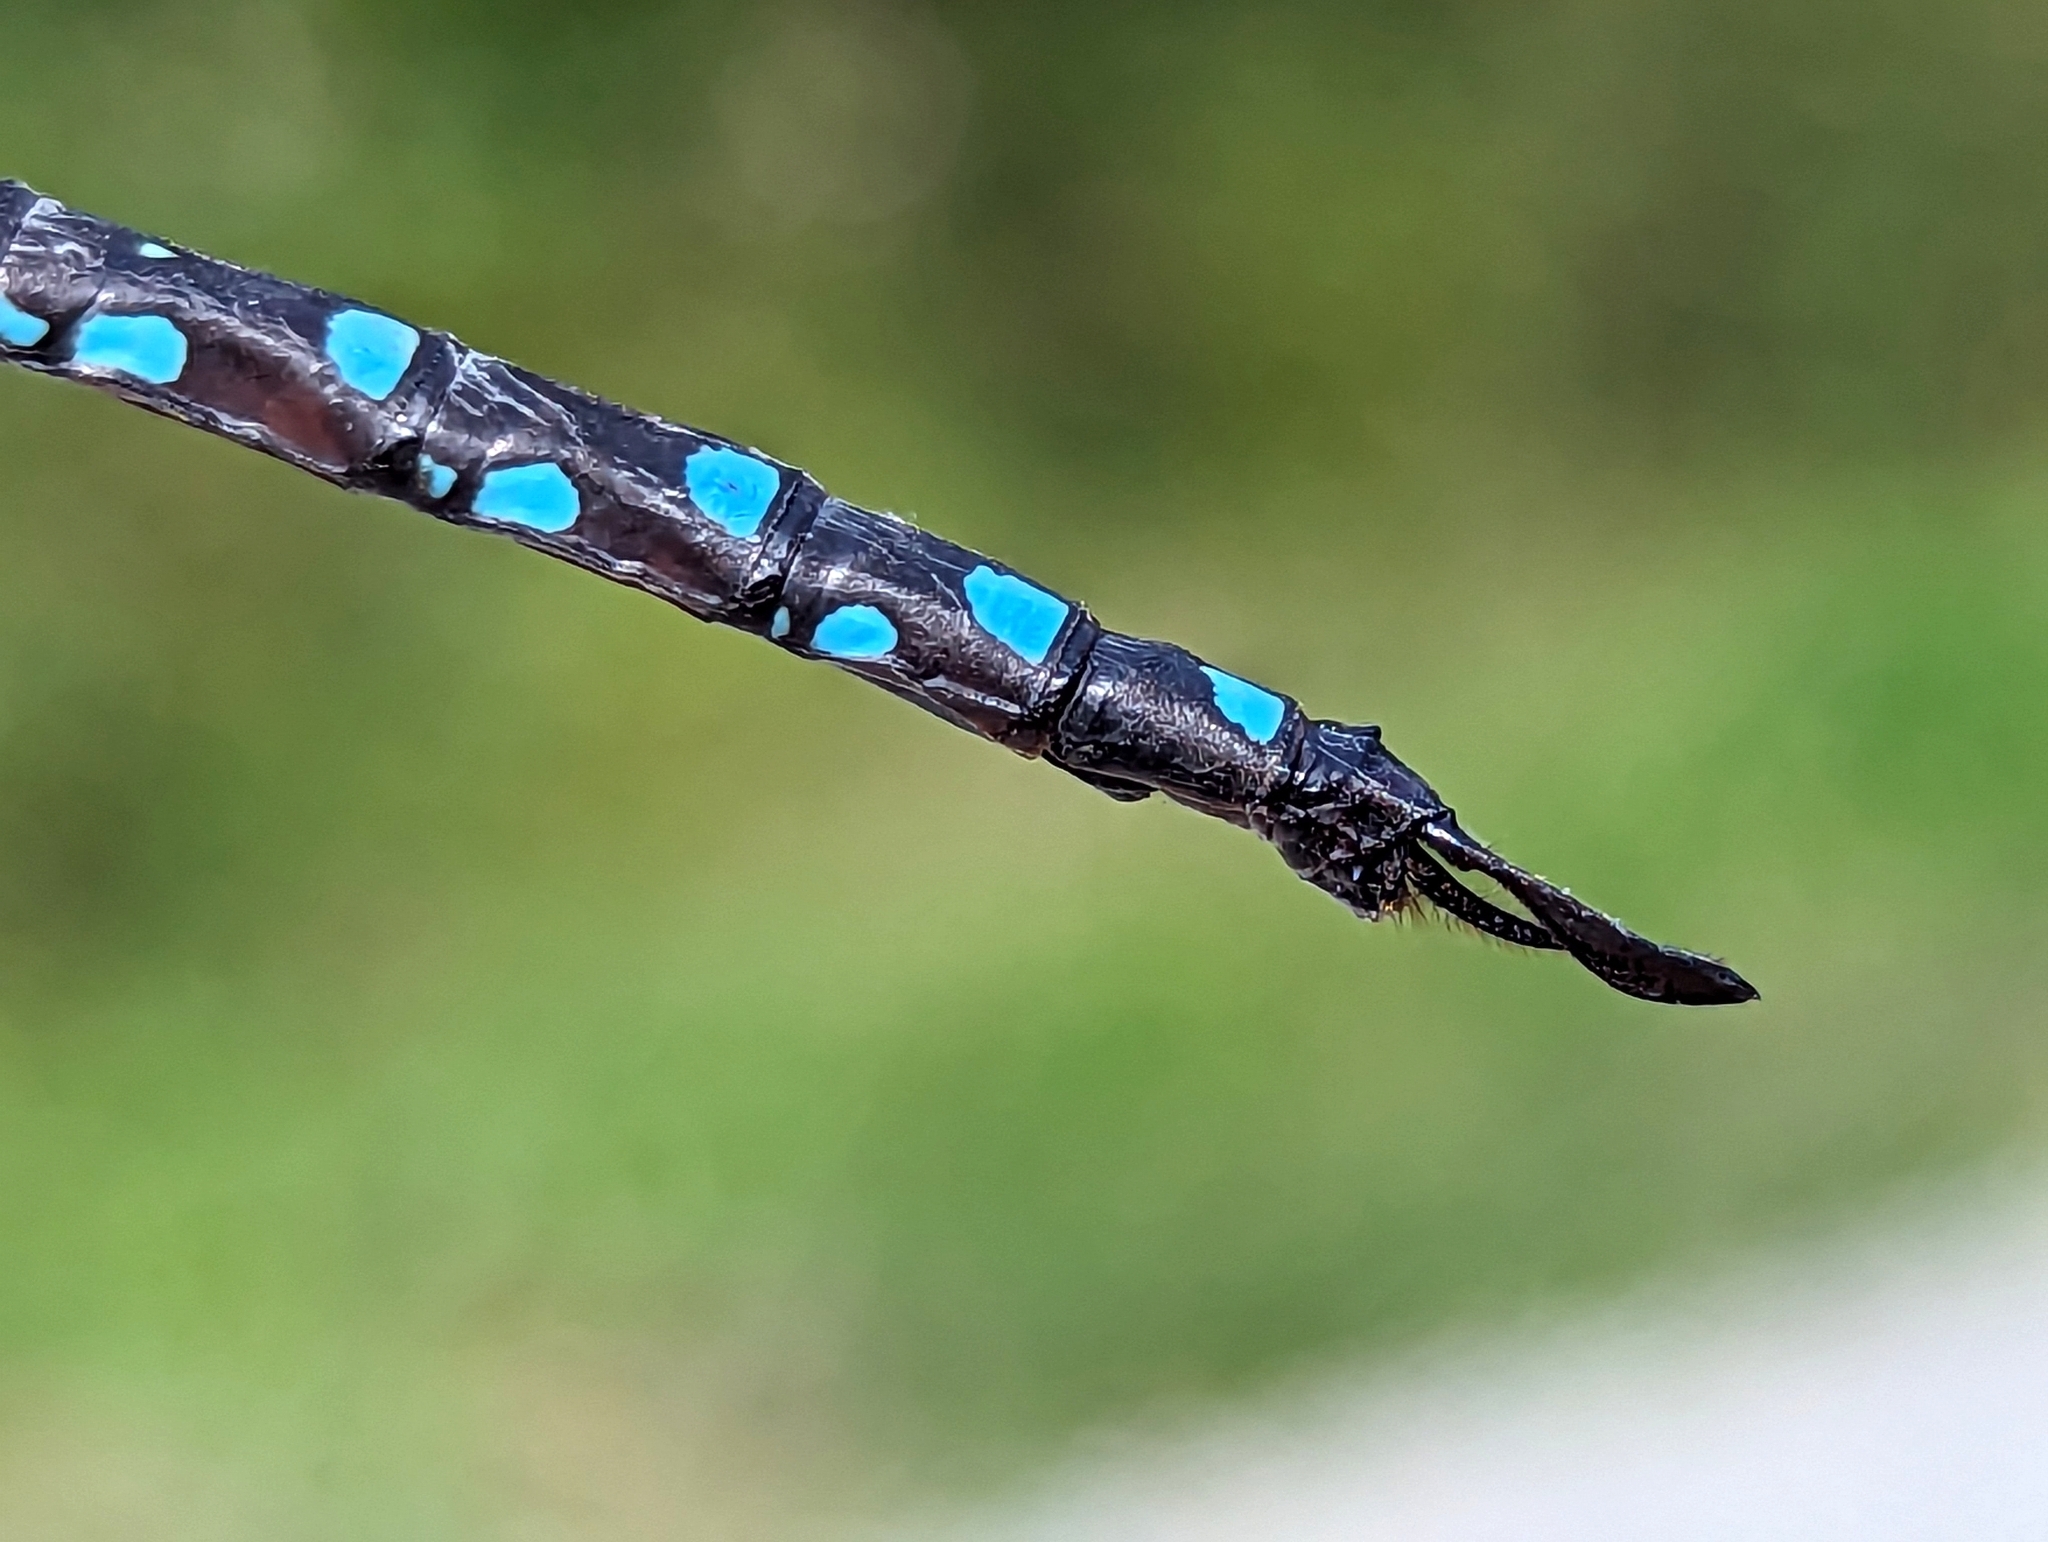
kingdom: Animalia
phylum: Arthropoda
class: Insecta
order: Odonata
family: Aeshnidae
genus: Aeshna
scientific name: Aeshna tuberculifera
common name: Aeschne à tubercules
